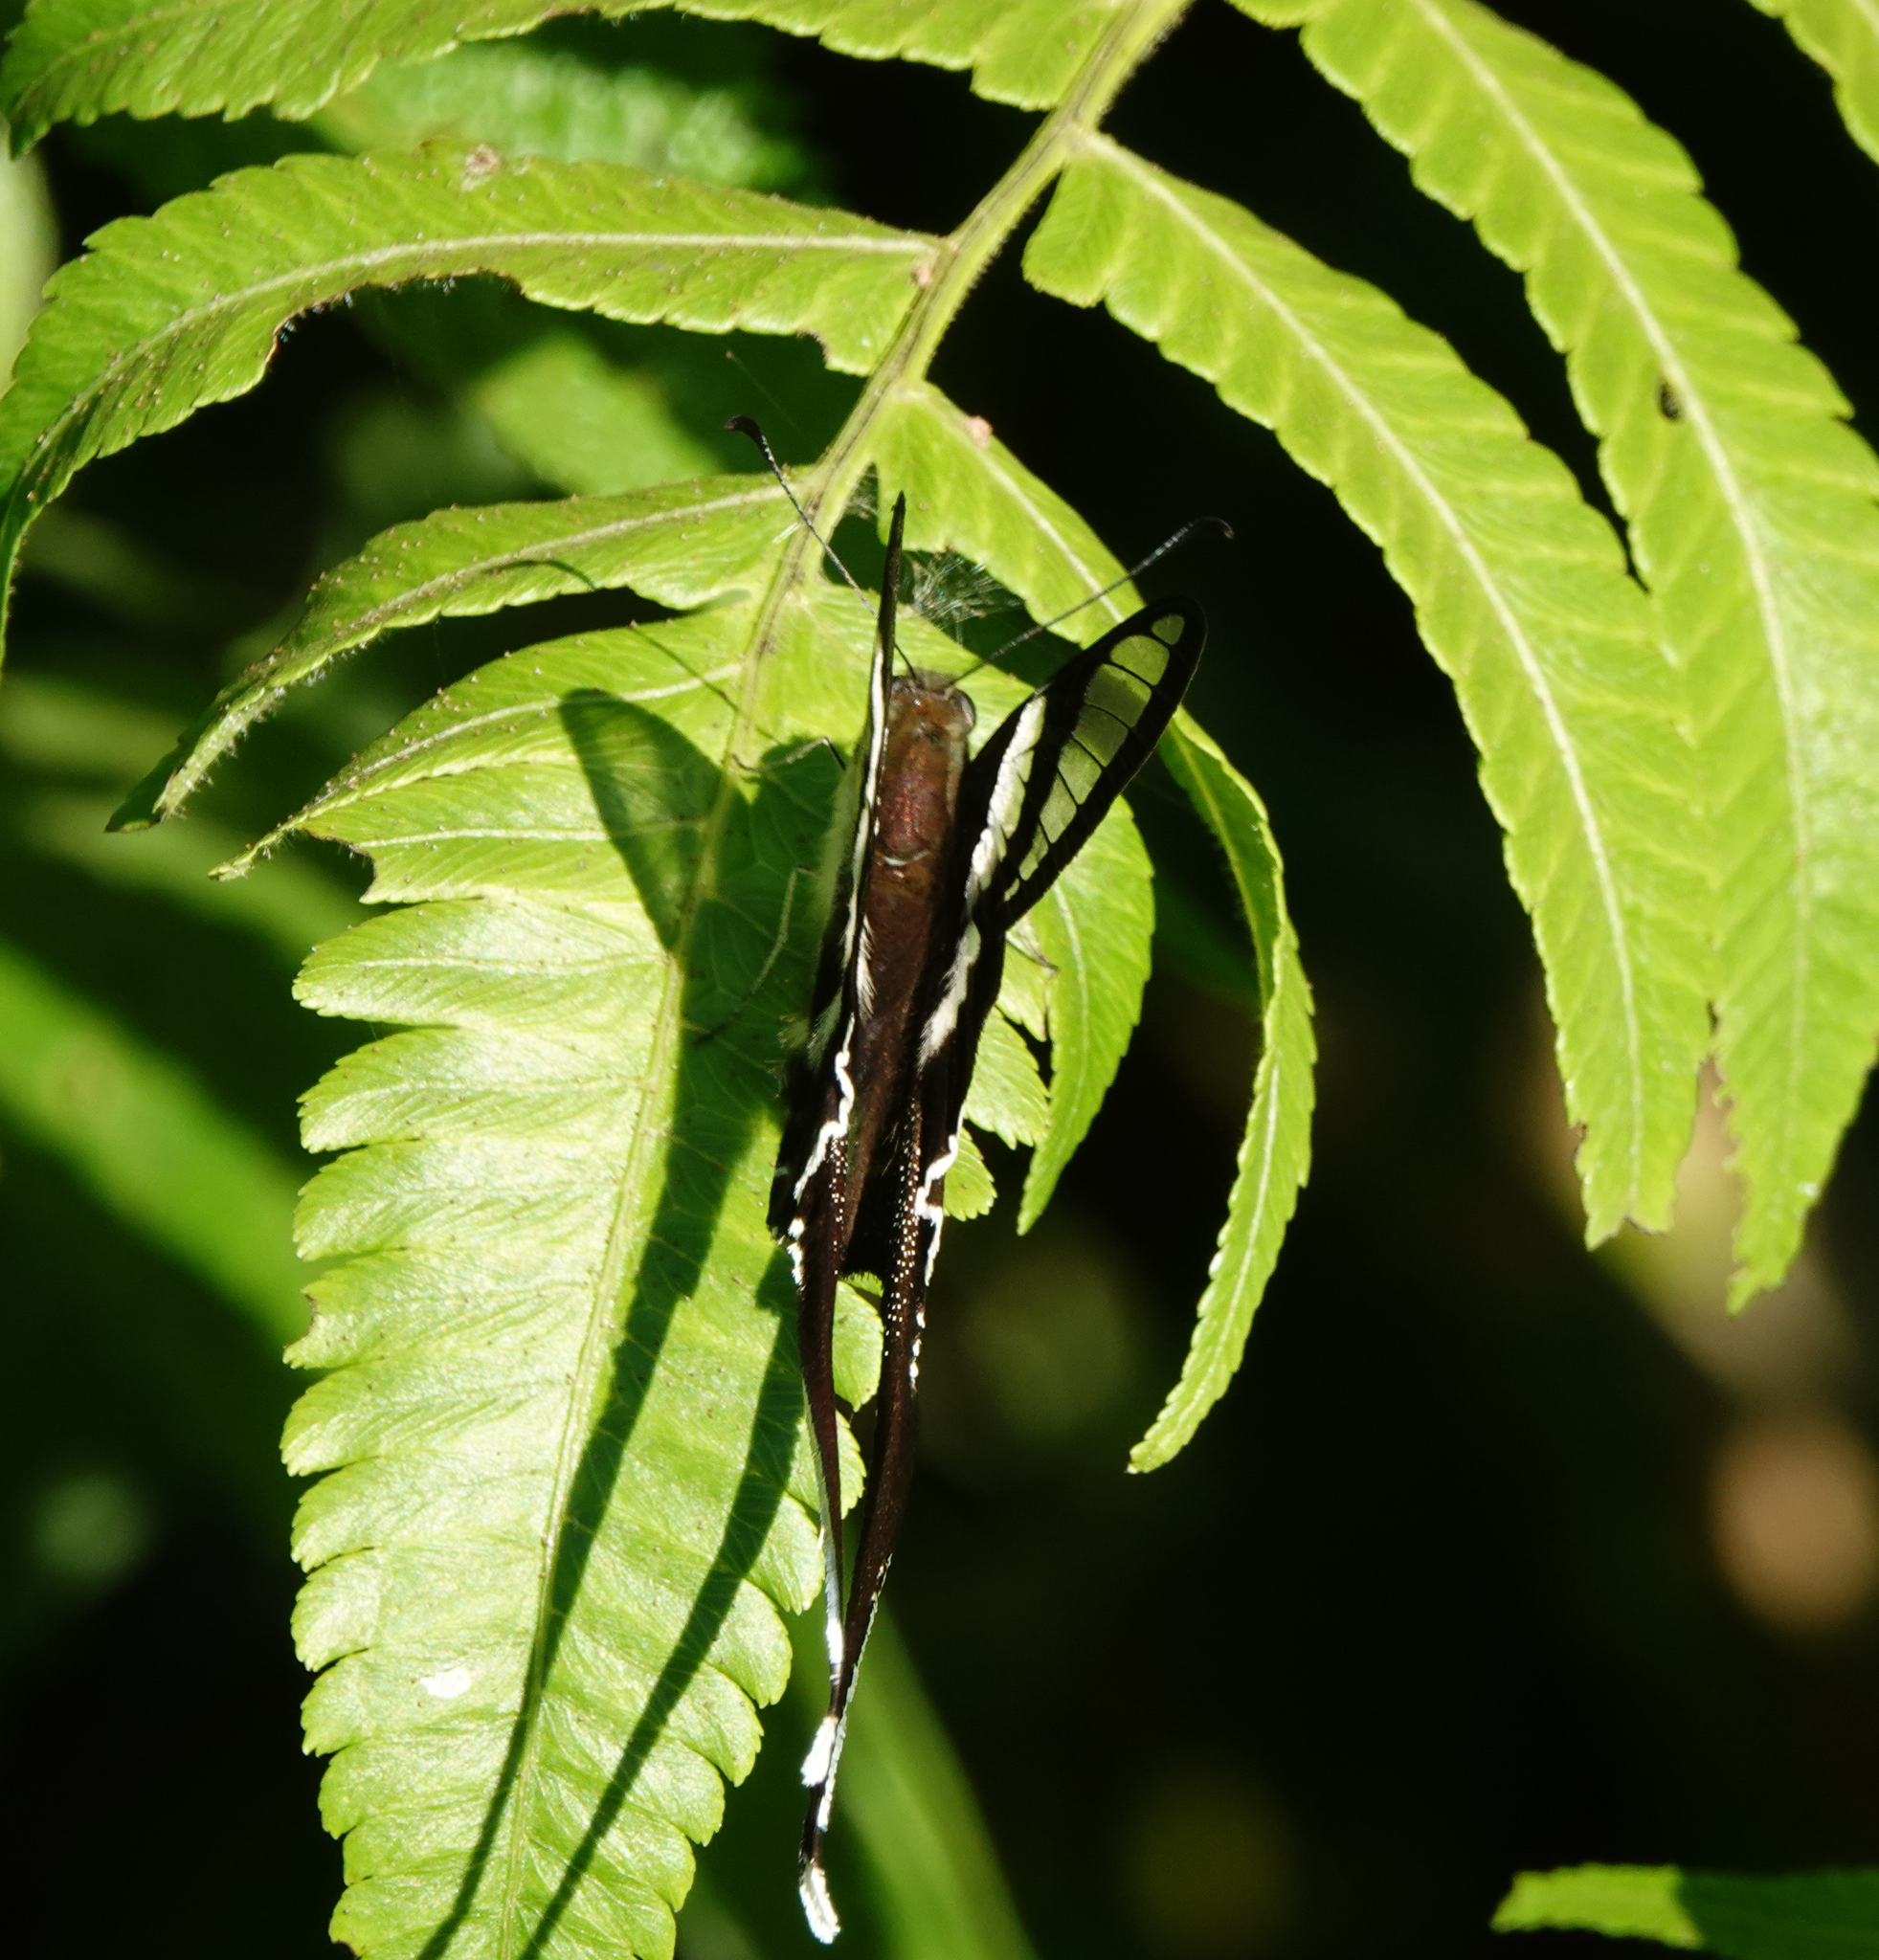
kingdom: Animalia
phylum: Arthropoda
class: Insecta
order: Lepidoptera
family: Papilionidae
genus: Lamproptera
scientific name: Lamproptera curius
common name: White dragontail
